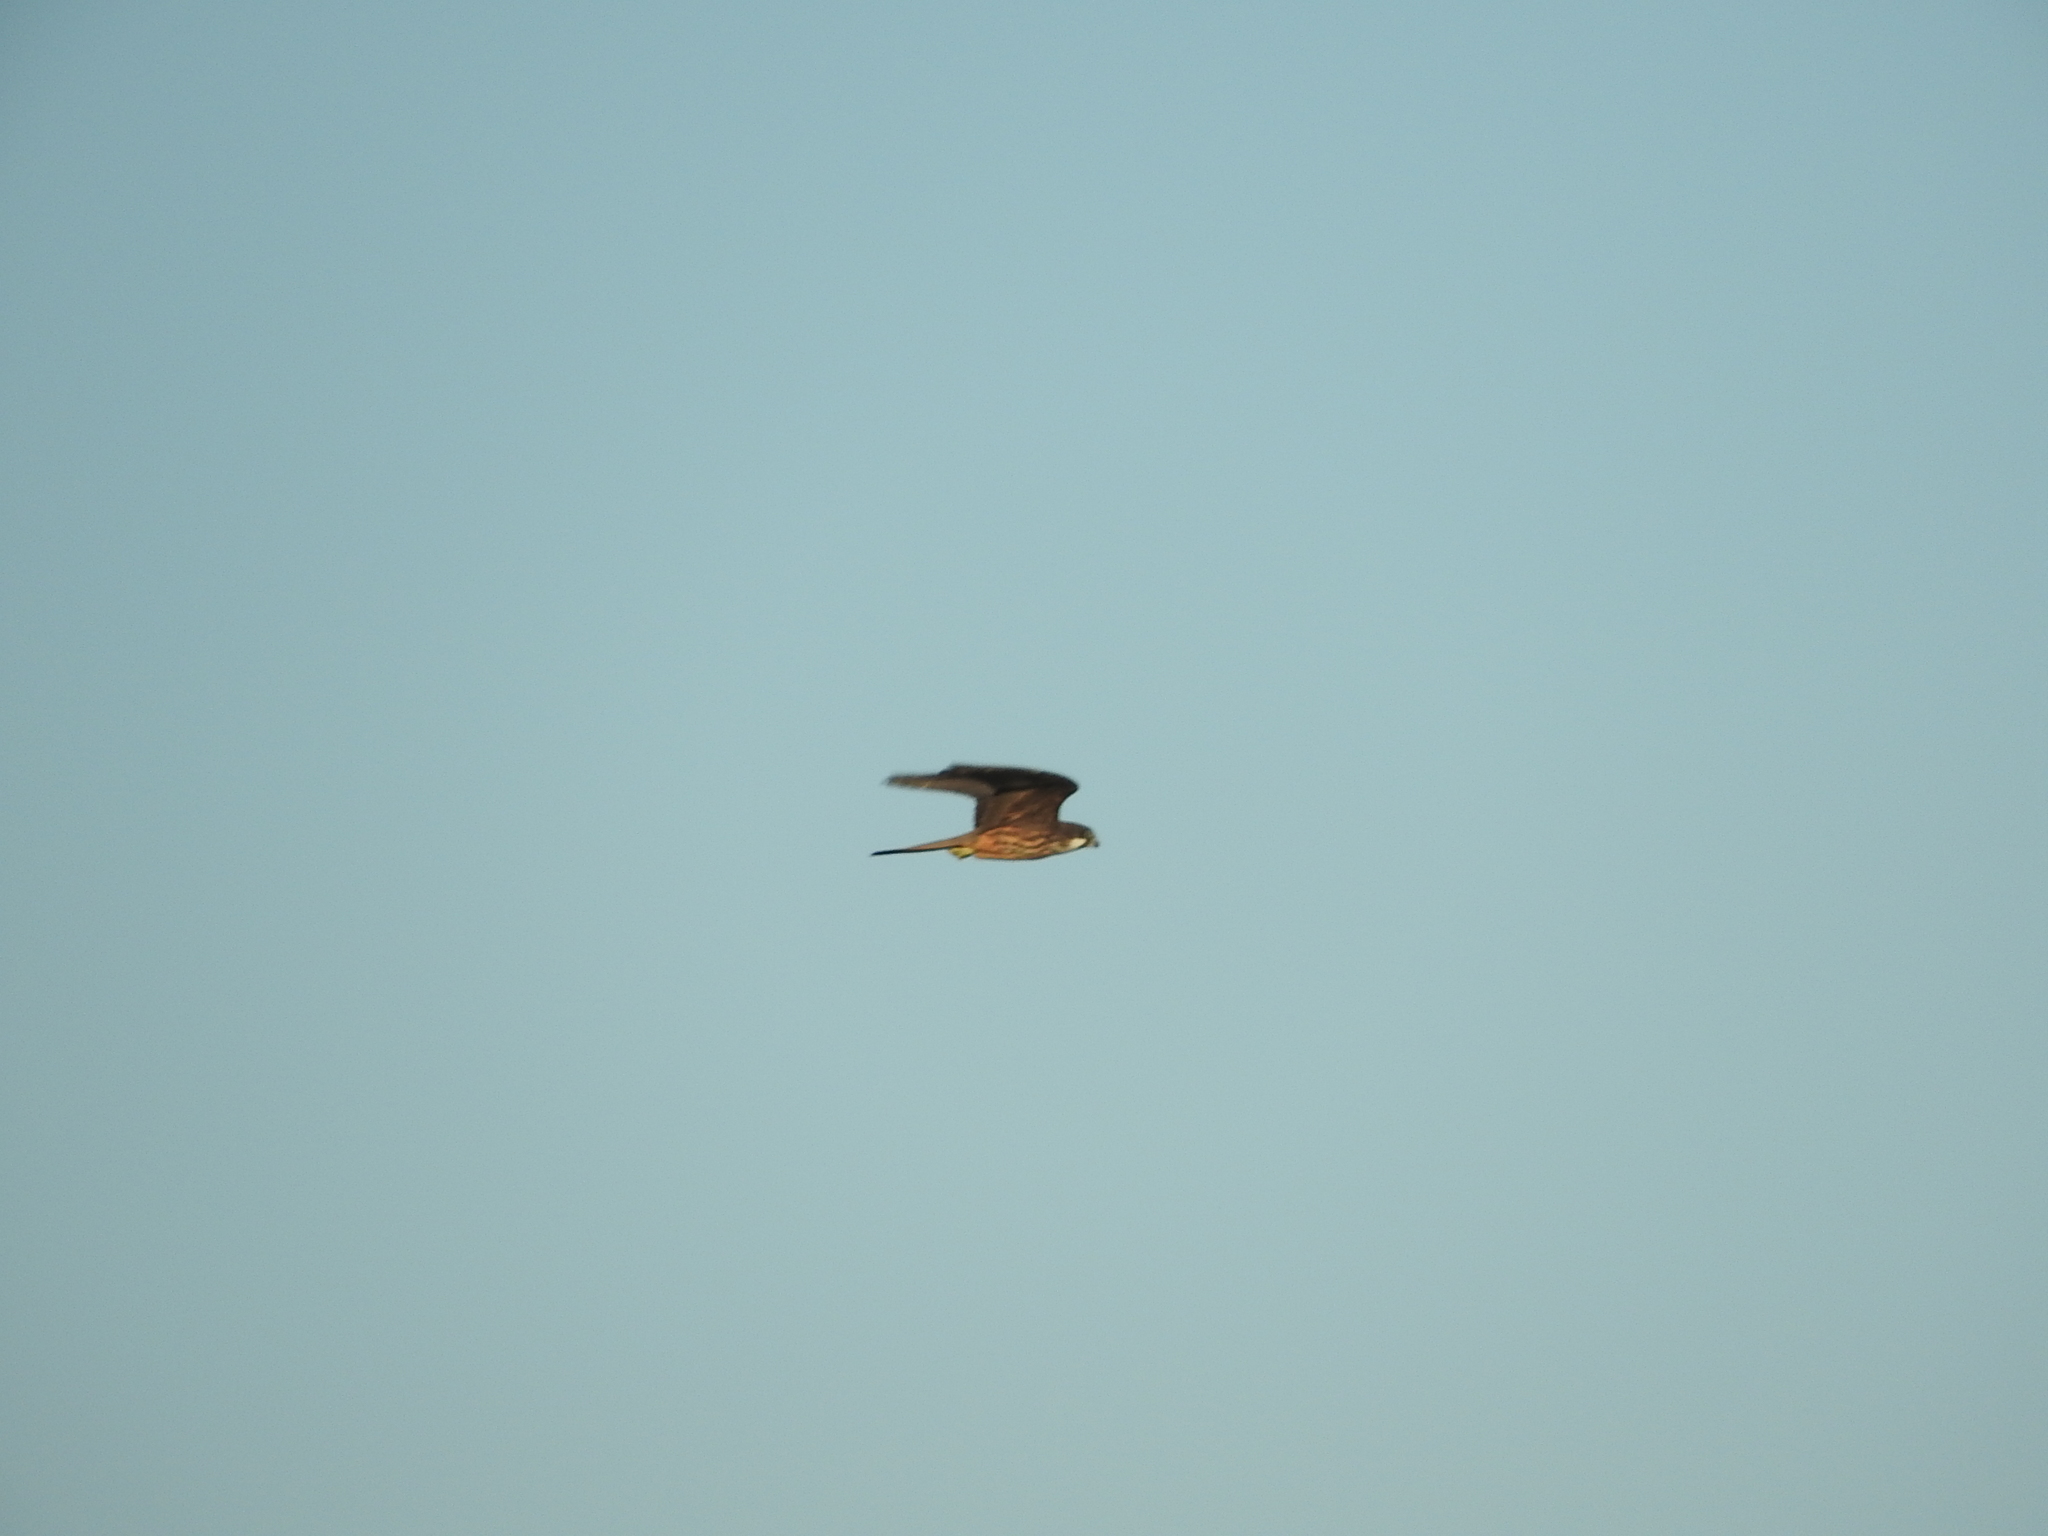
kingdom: Animalia
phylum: Chordata
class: Aves
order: Falconiformes
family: Falconidae
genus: Falco
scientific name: Falco eleonorae
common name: Eleonora's falcon
